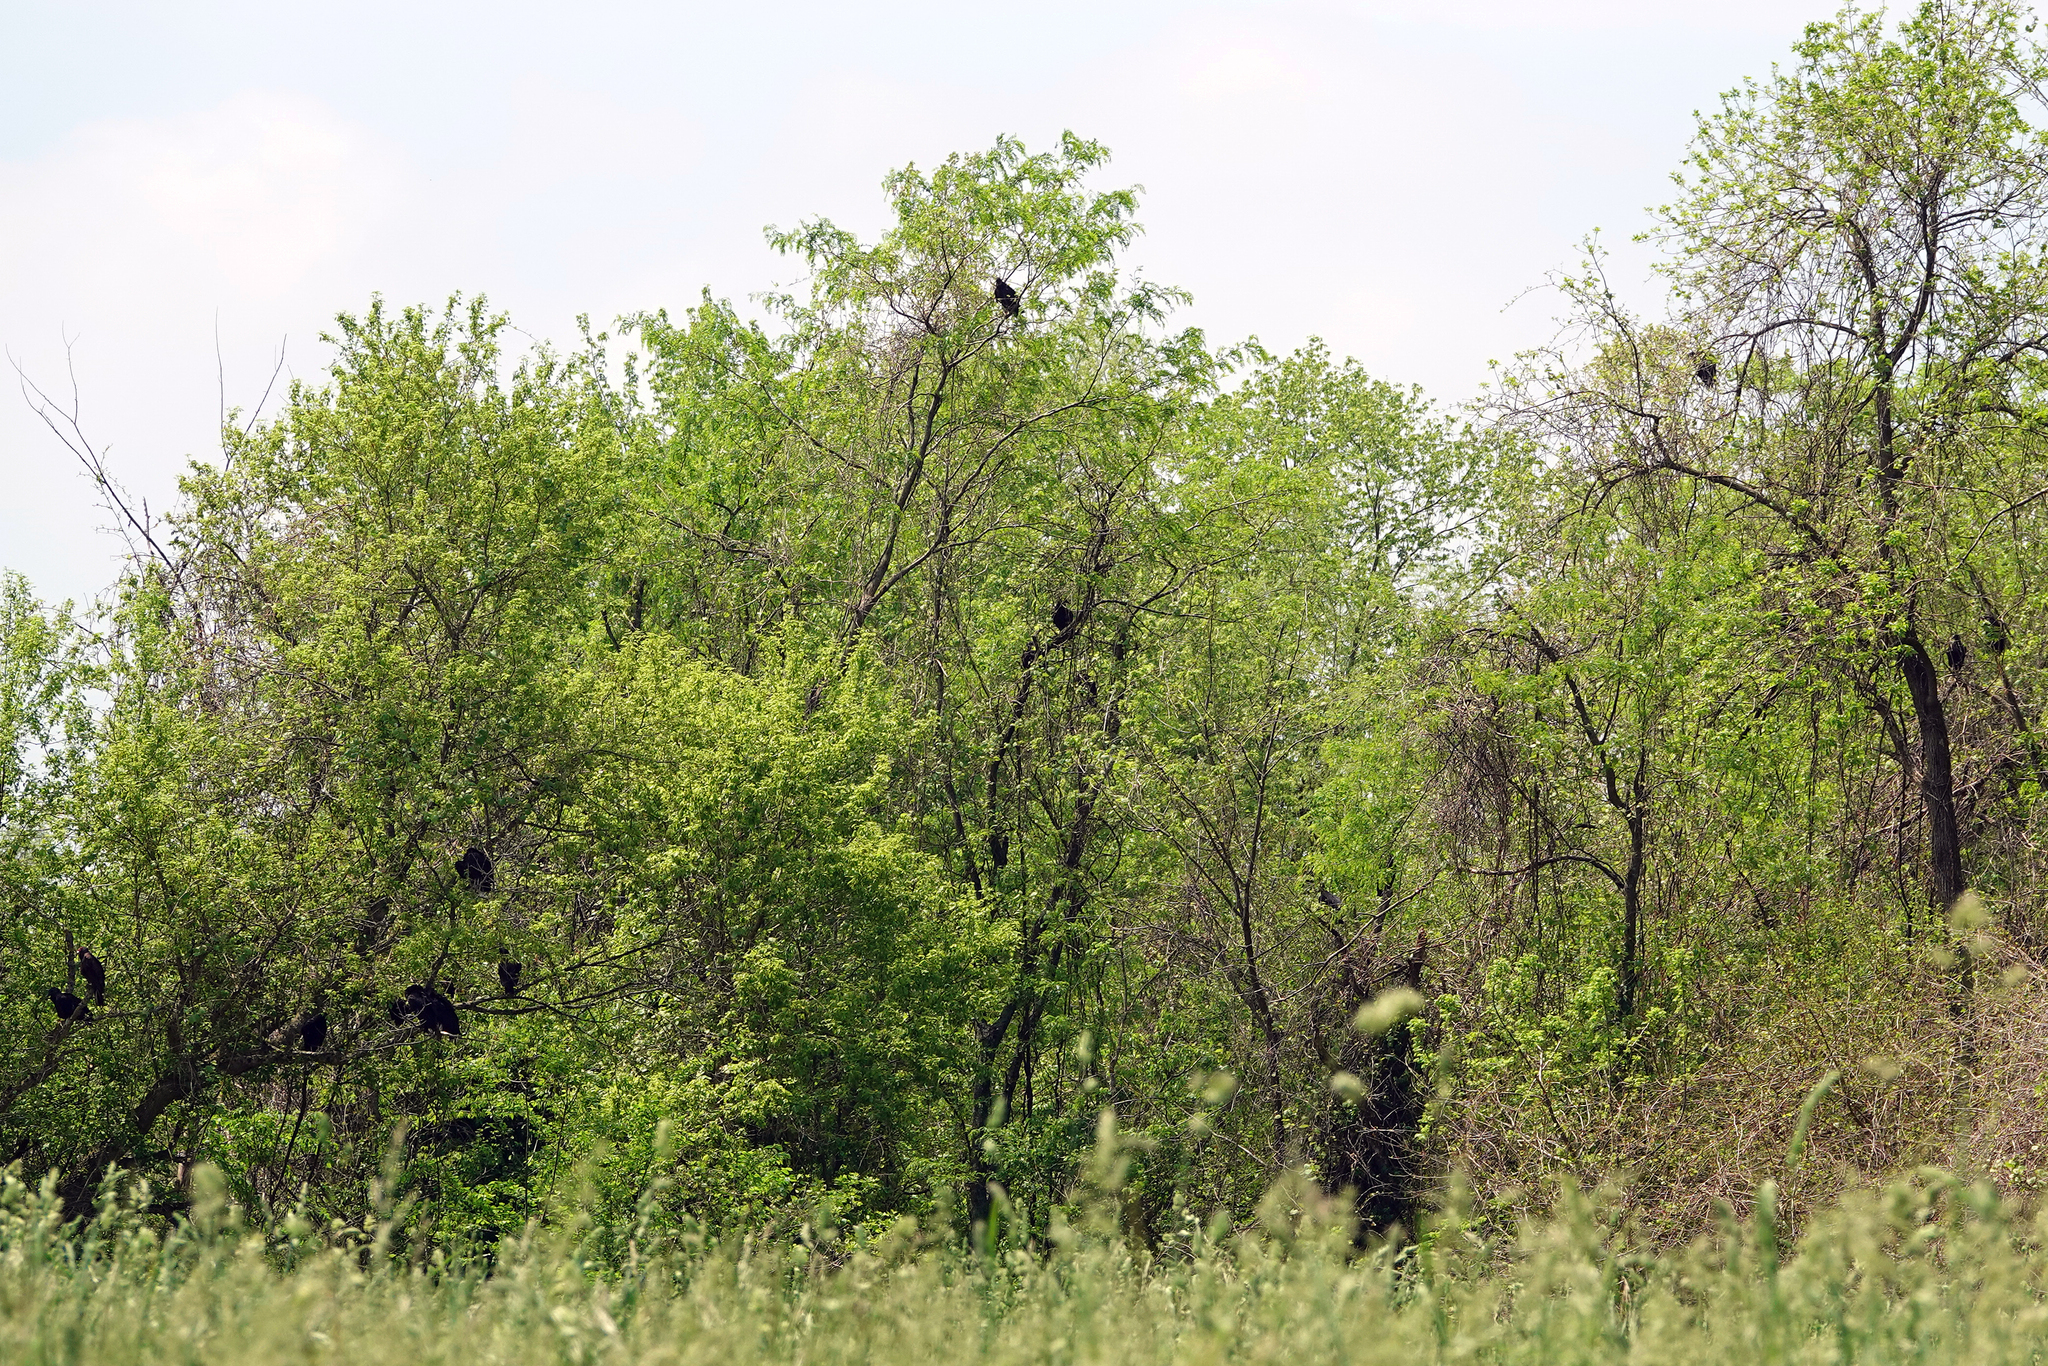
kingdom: Animalia
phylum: Chordata
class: Aves
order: Accipitriformes
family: Cathartidae
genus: Coragyps
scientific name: Coragyps atratus
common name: Black vulture
